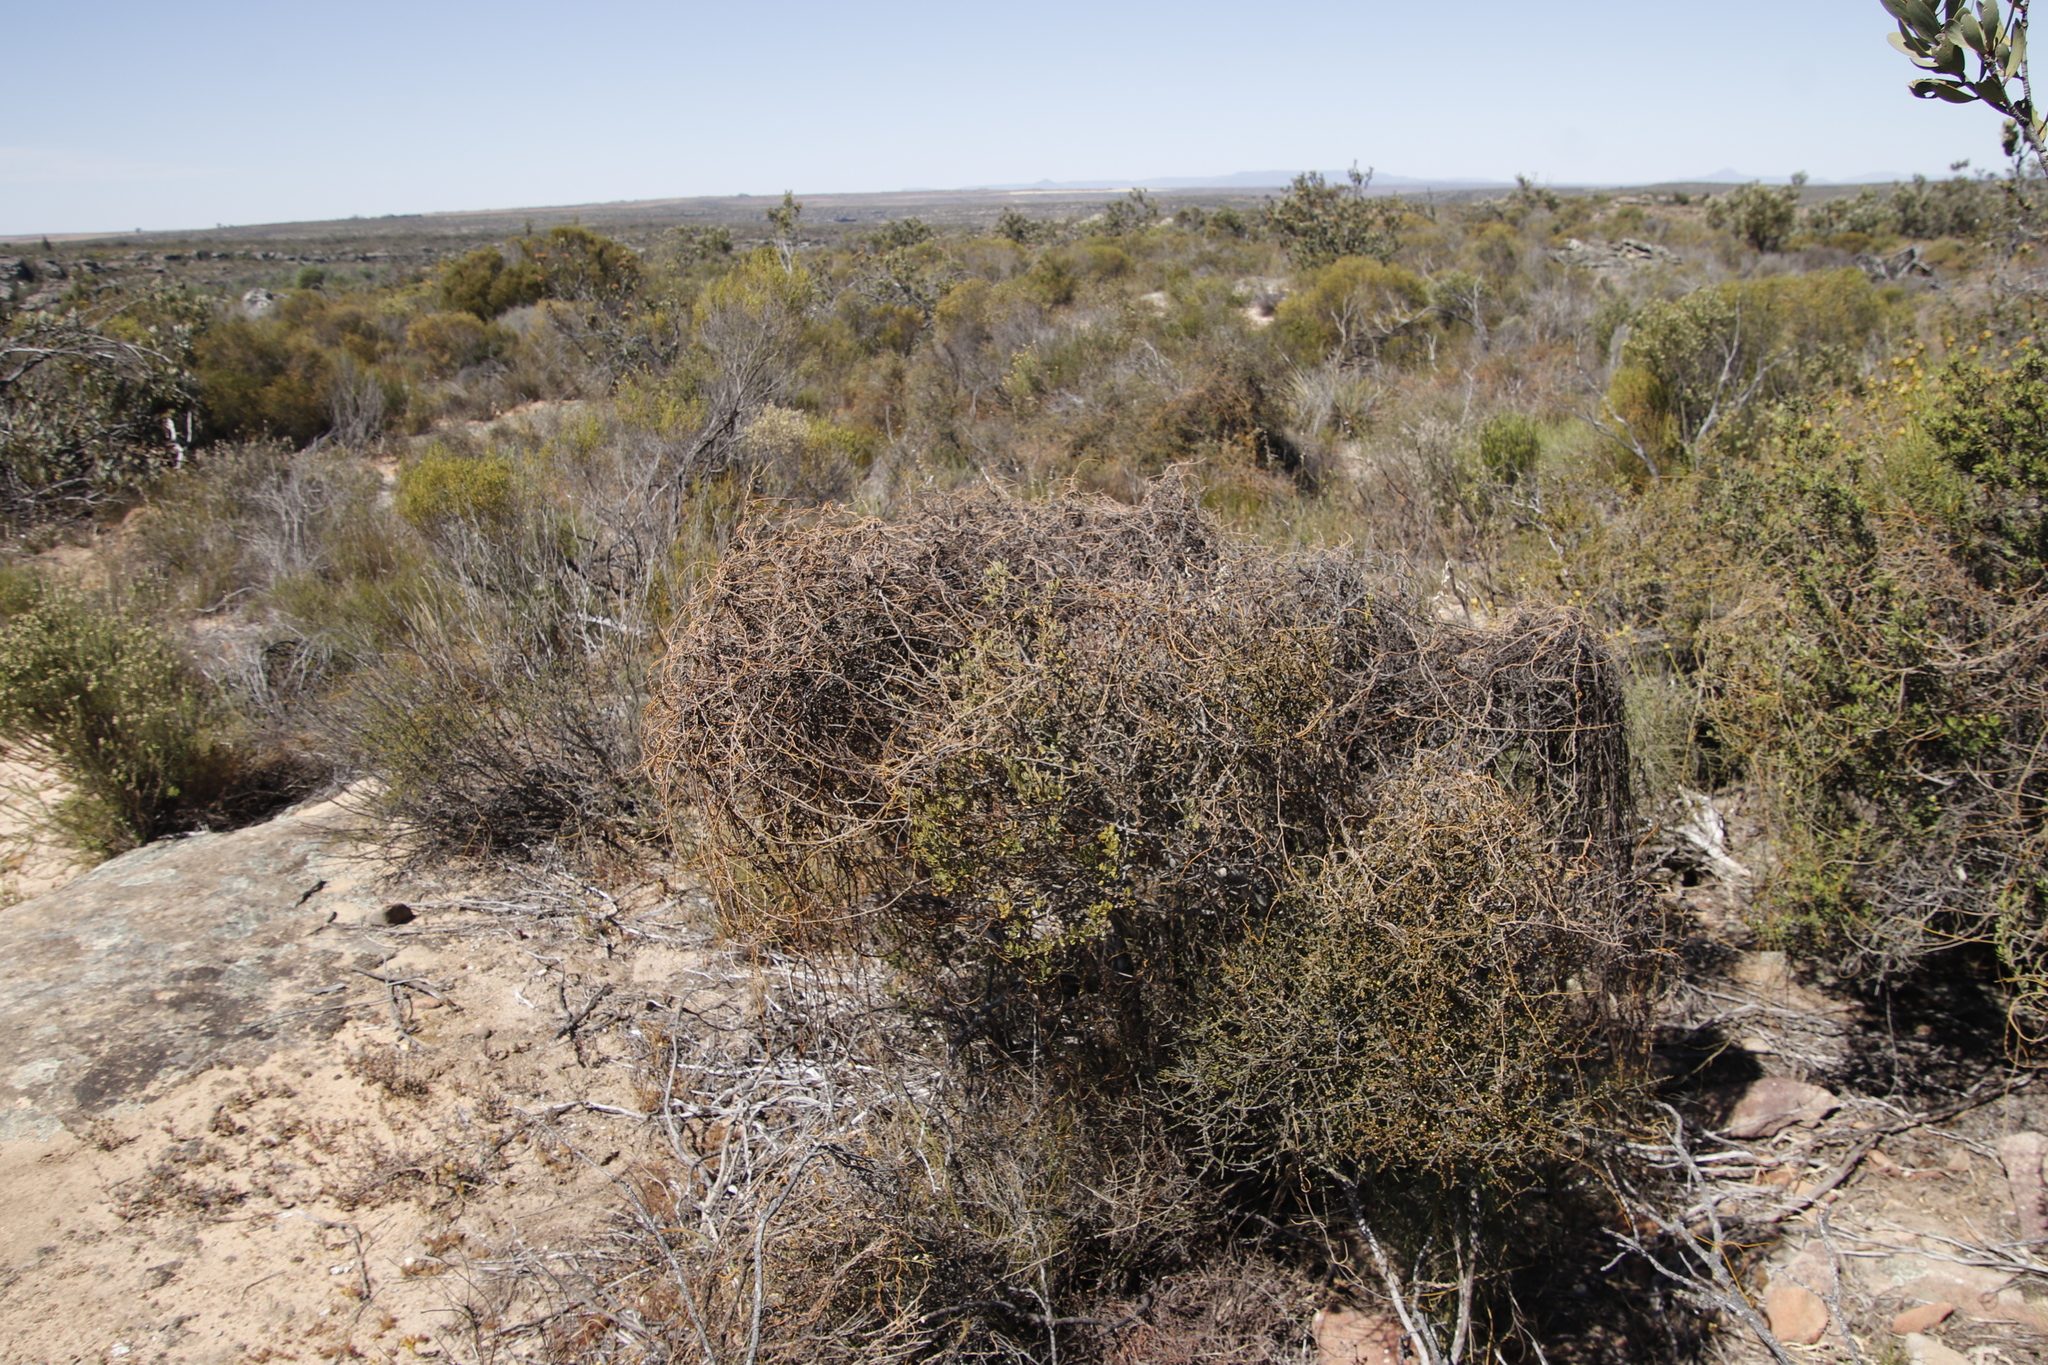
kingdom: Plantae
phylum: Tracheophyta
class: Magnoliopsida
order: Laurales
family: Lauraceae
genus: Cassytha
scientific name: Cassytha ciliolata
